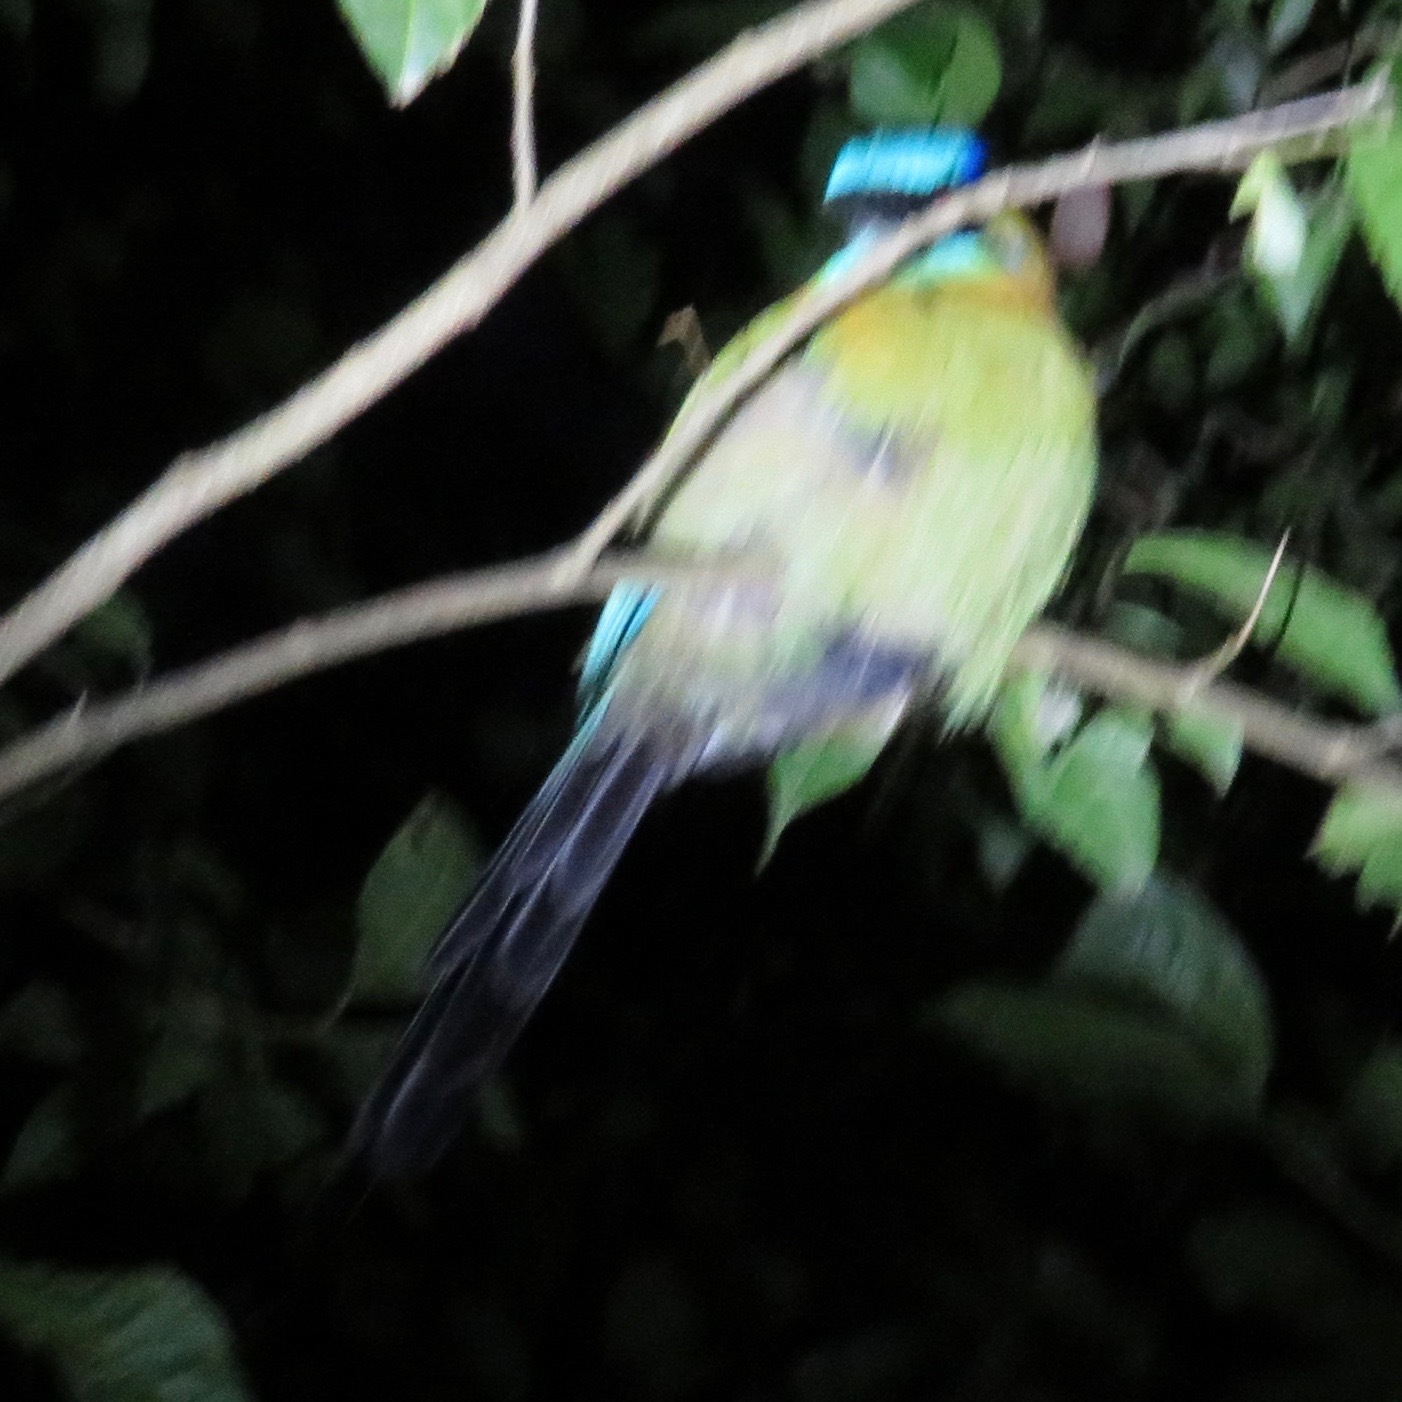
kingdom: Animalia
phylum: Chordata
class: Aves
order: Coraciiformes
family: Momotidae
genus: Momotus
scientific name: Momotus lessonii
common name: Lesson's motmot
